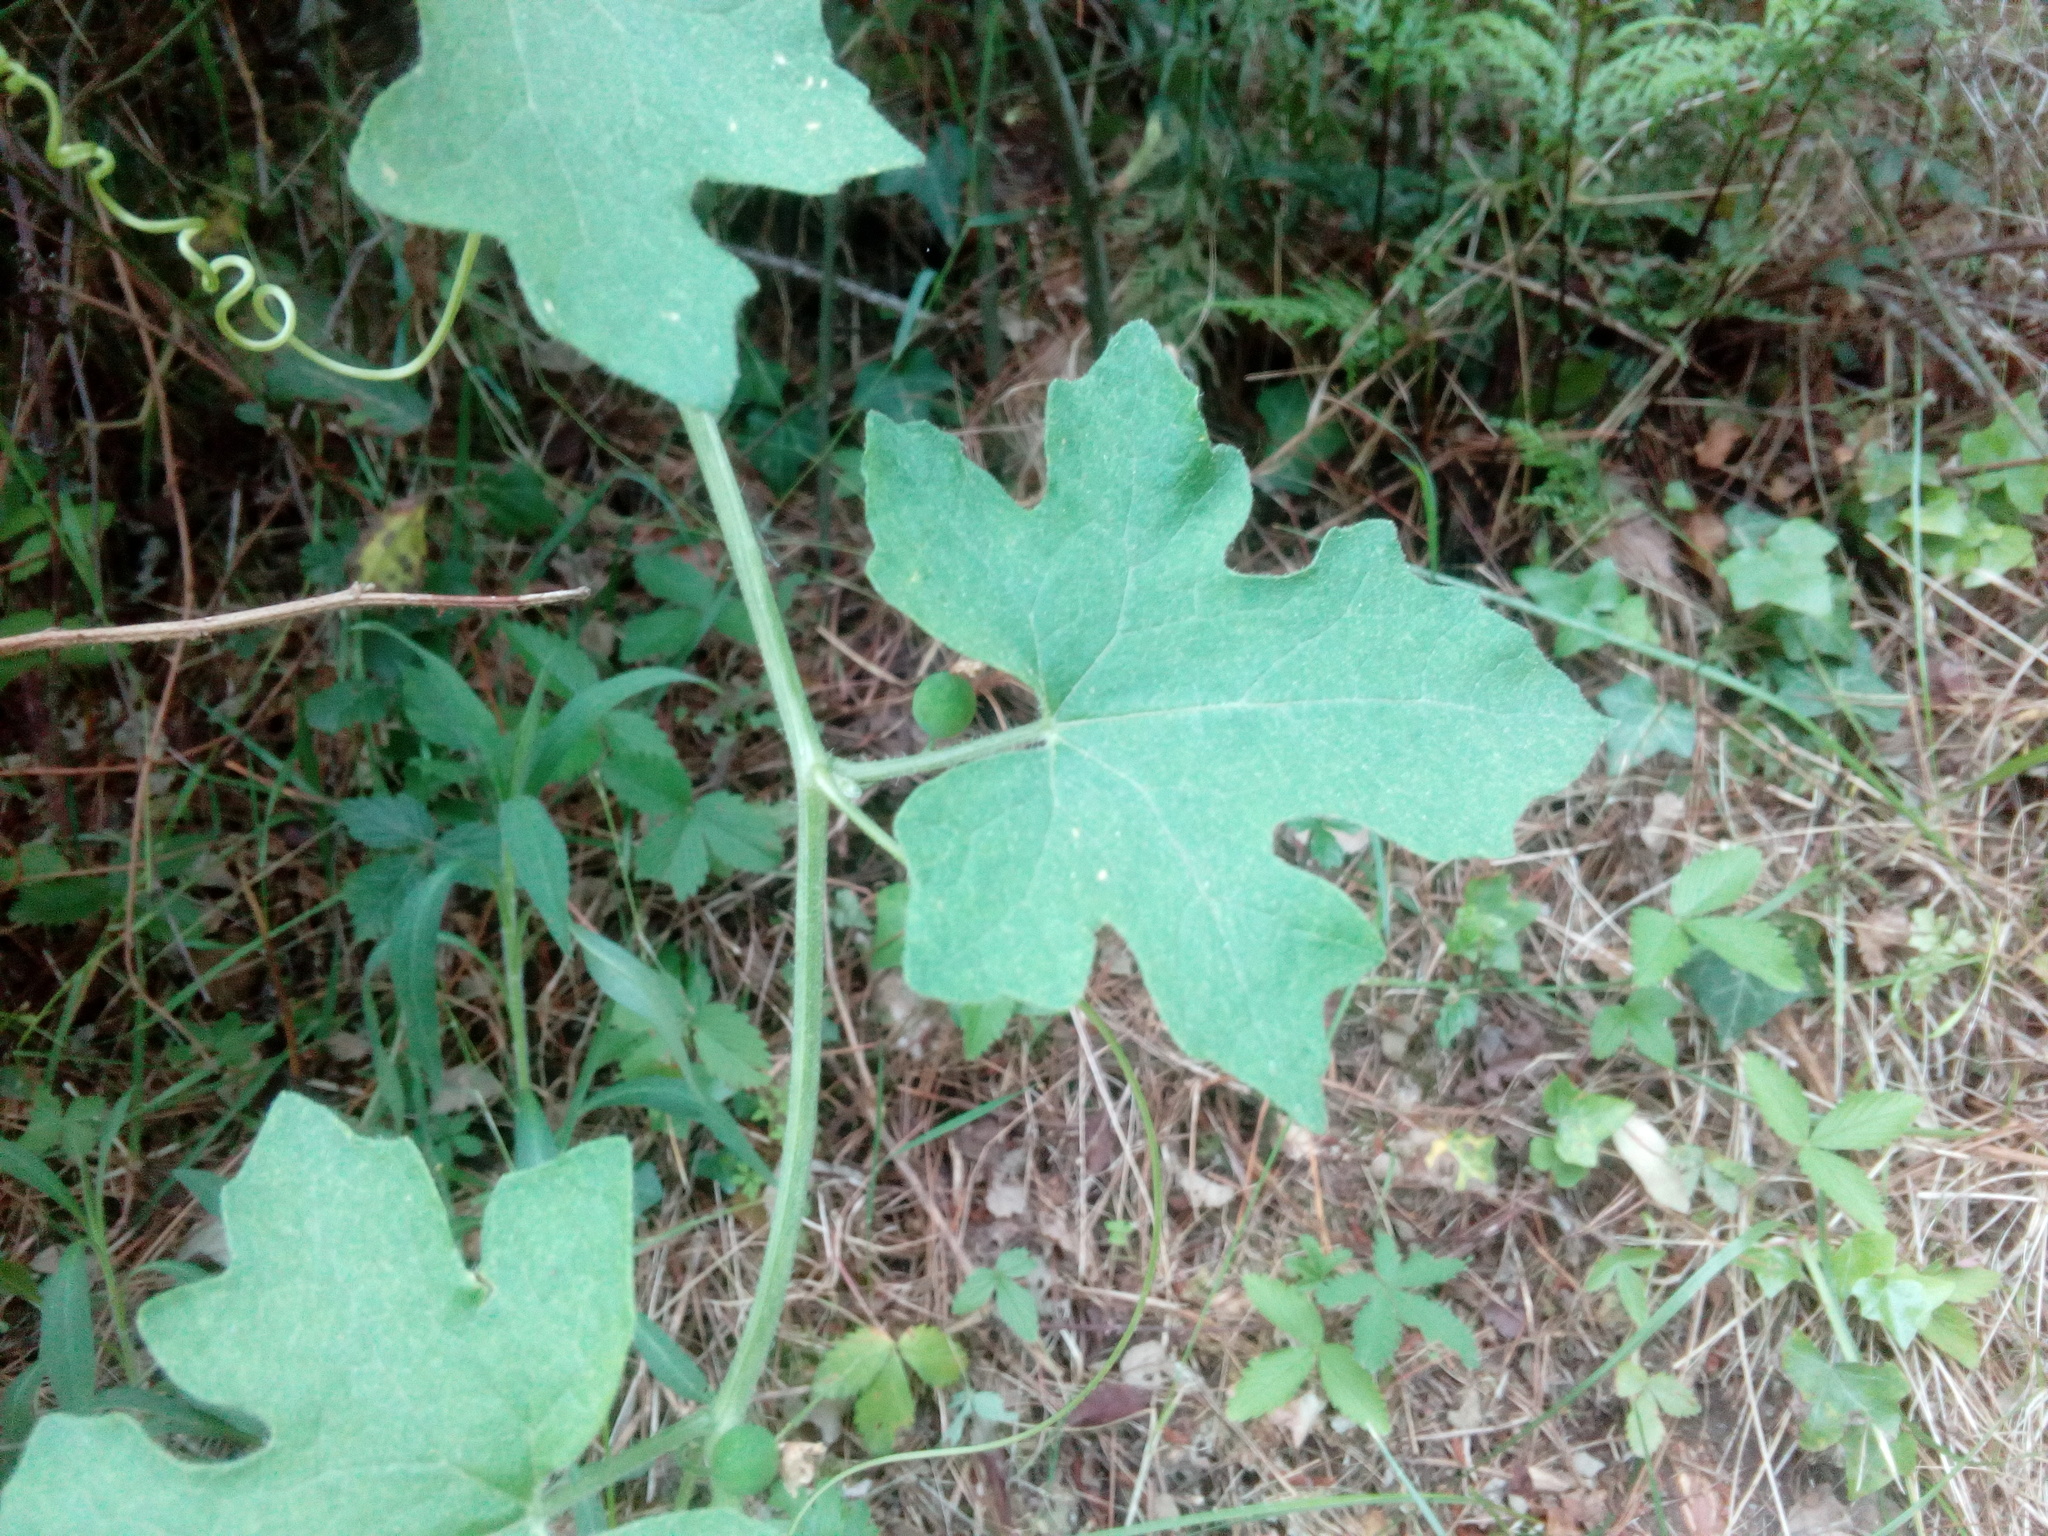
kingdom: Plantae
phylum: Tracheophyta
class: Magnoliopsida
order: Cucurbitales
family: Cucurbitaceae
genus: Bryonia
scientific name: Bryonia dioica
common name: White bryony
